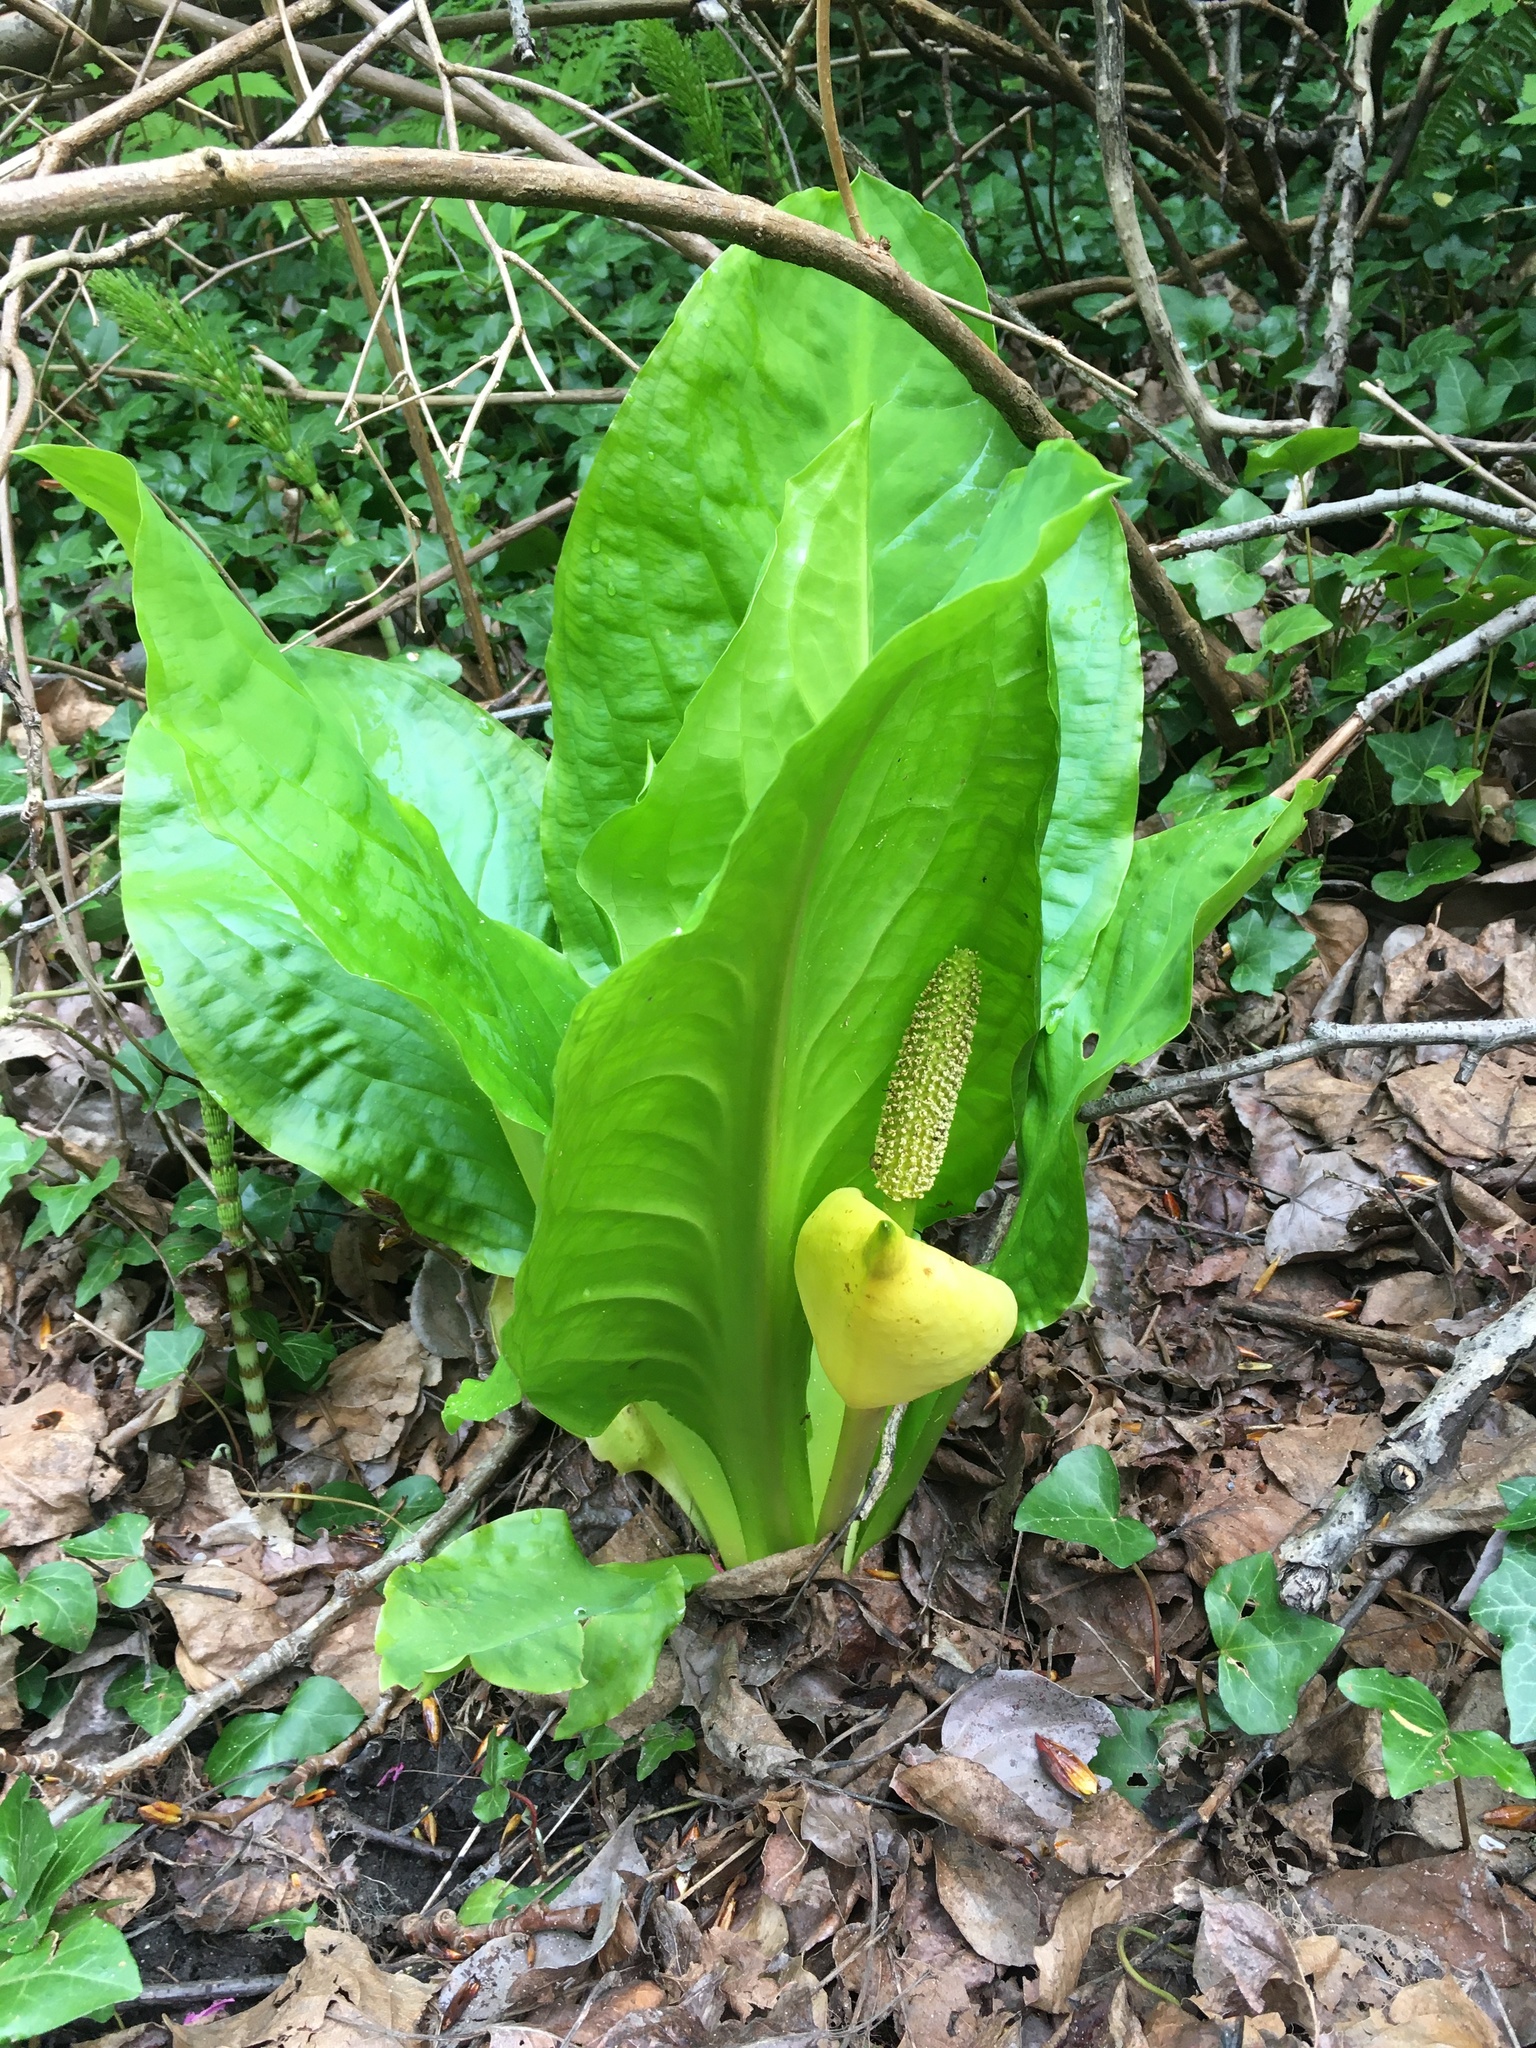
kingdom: Plantae
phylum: Tracheophyta
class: Liliopsida
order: Alismatales
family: Araceae
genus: Lysichiton
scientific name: Lysichiton americanus
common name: American skunk cabbage
